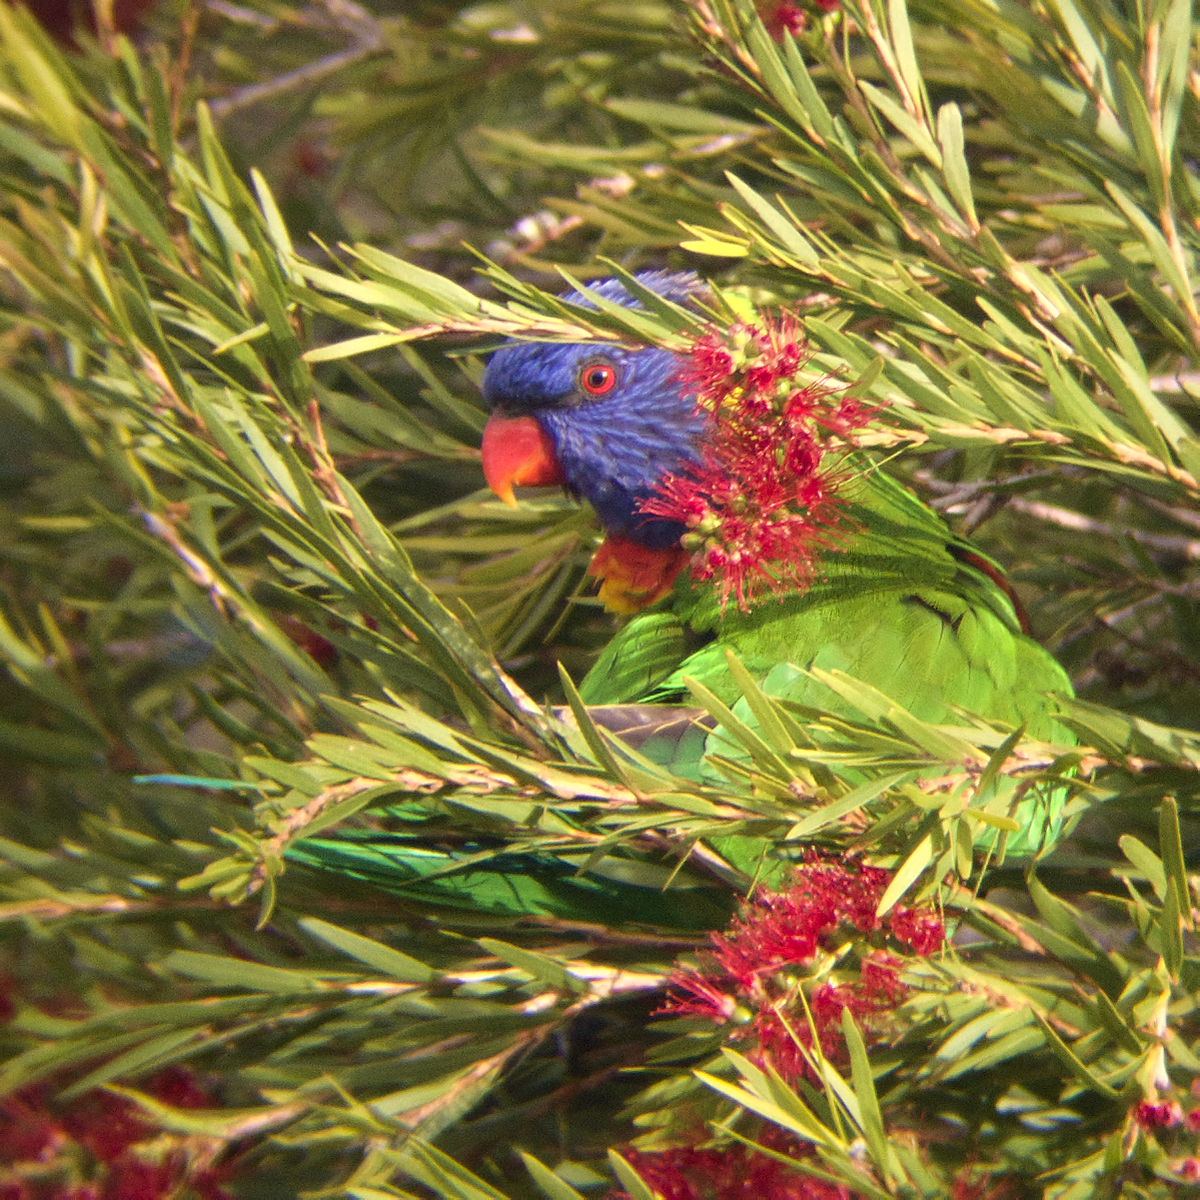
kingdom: Animalia
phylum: Chordata
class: Aves
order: Psittaciformes
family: Psittacidae
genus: Trichoglossus
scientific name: Trichoglossus haematodus
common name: Coconut lorikeet
